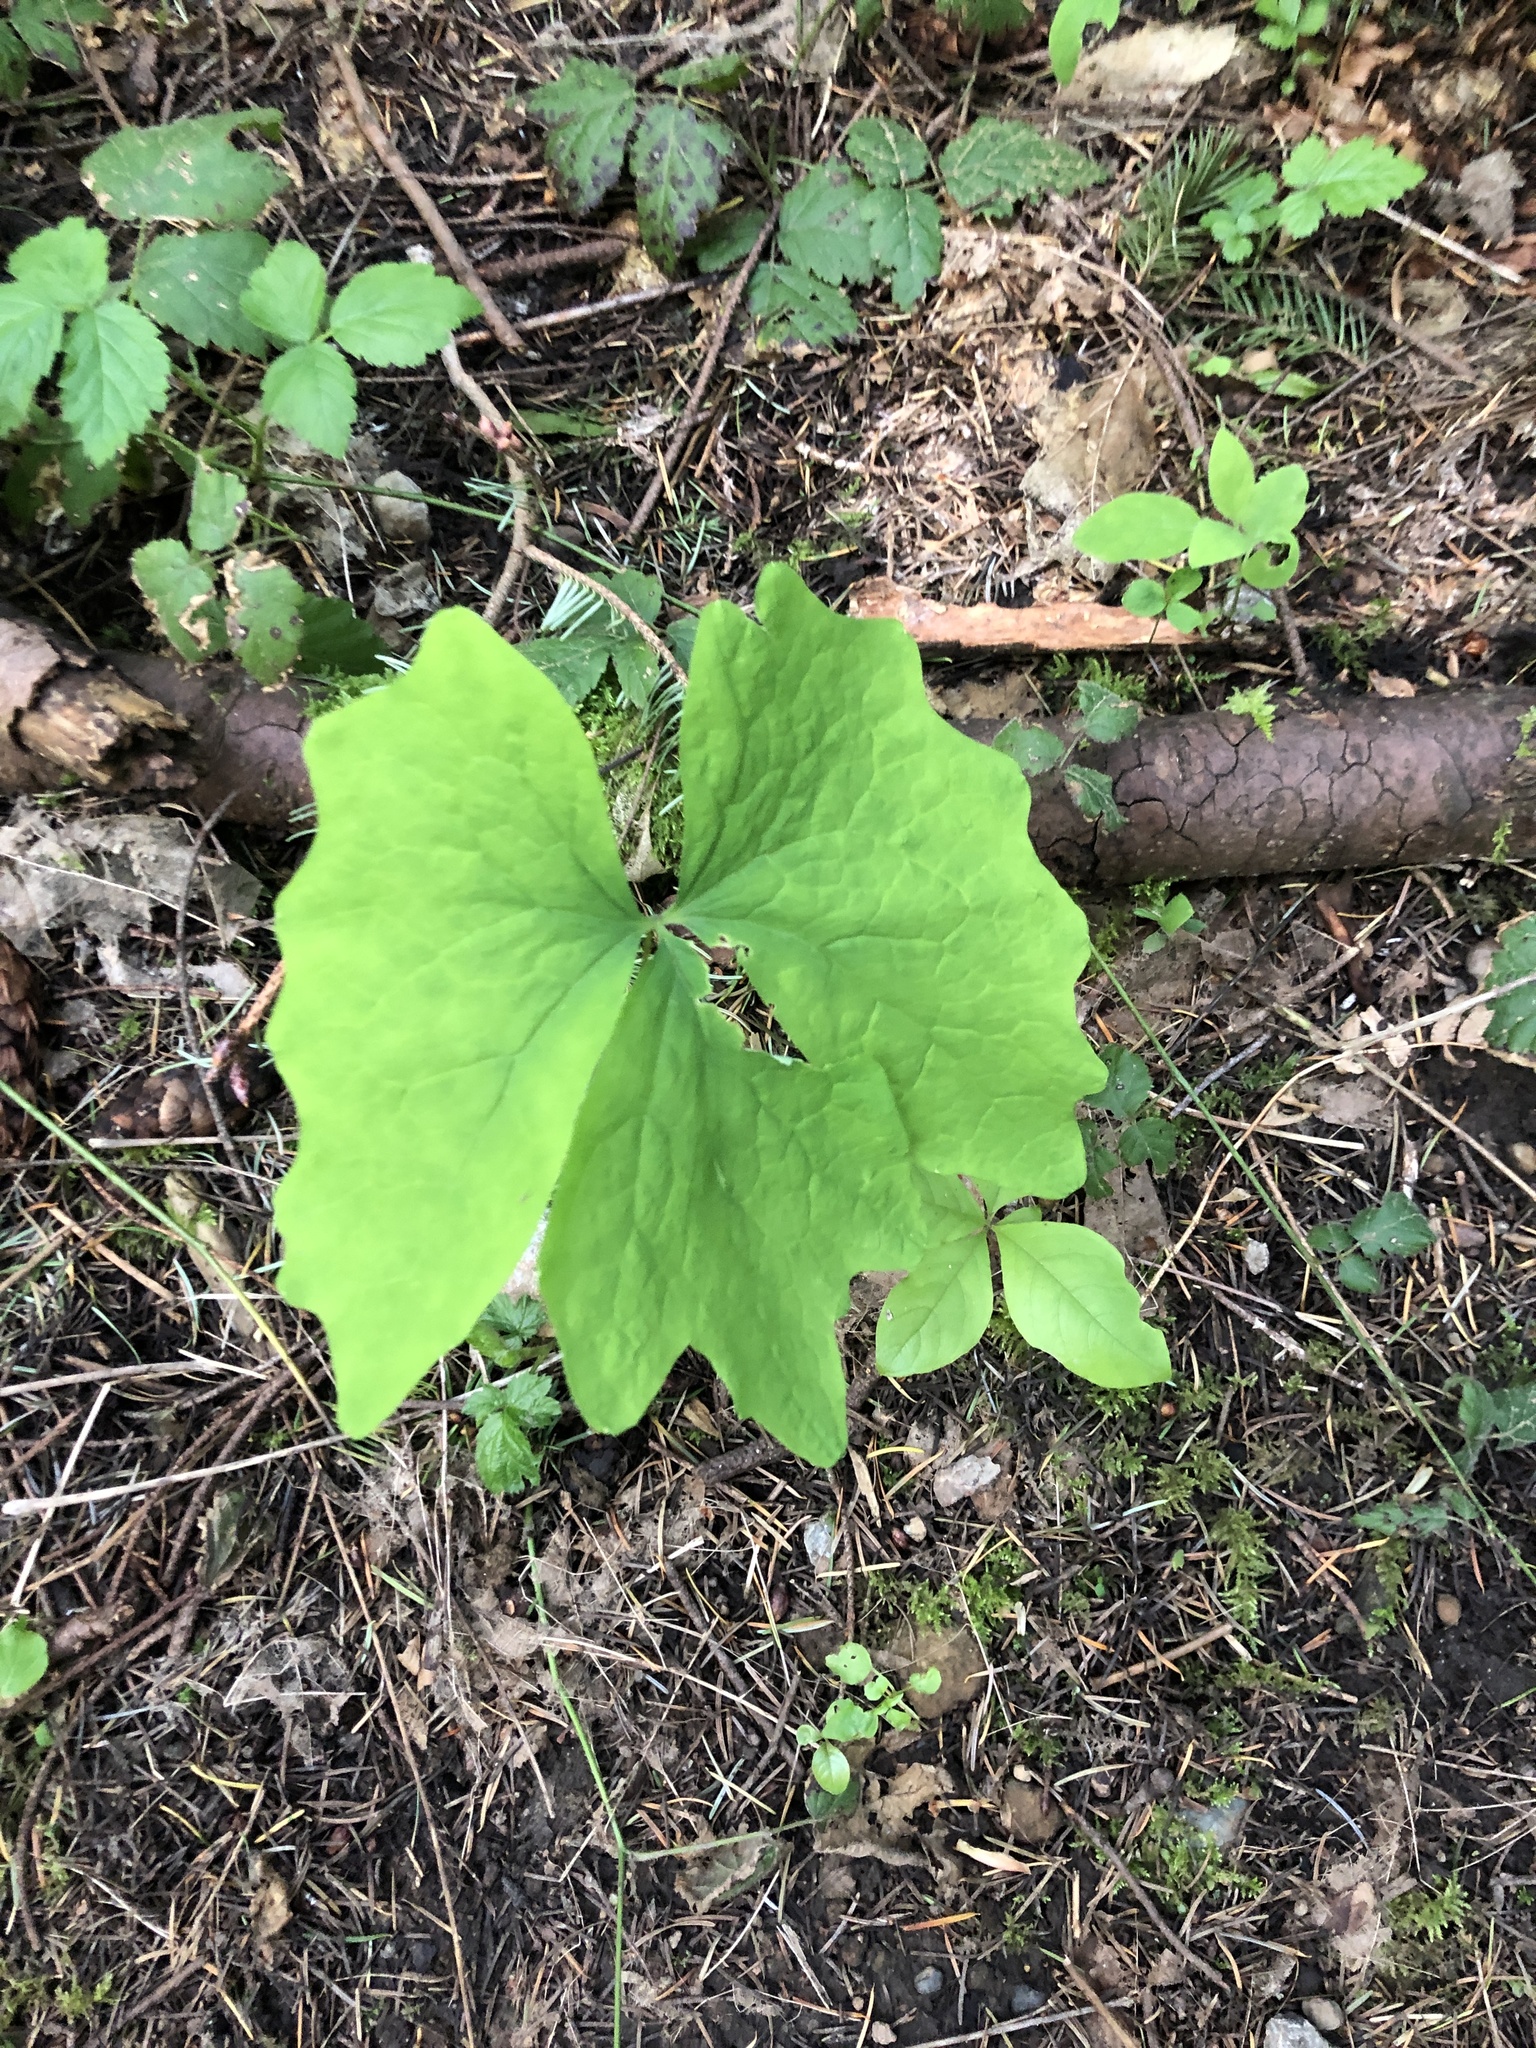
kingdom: Plantae
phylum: Tracheophyta
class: Magnoliopsida
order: Ranunculales
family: Berberidaceae
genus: Achlys
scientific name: Achlys triphylla
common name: Vanilla-leaf
